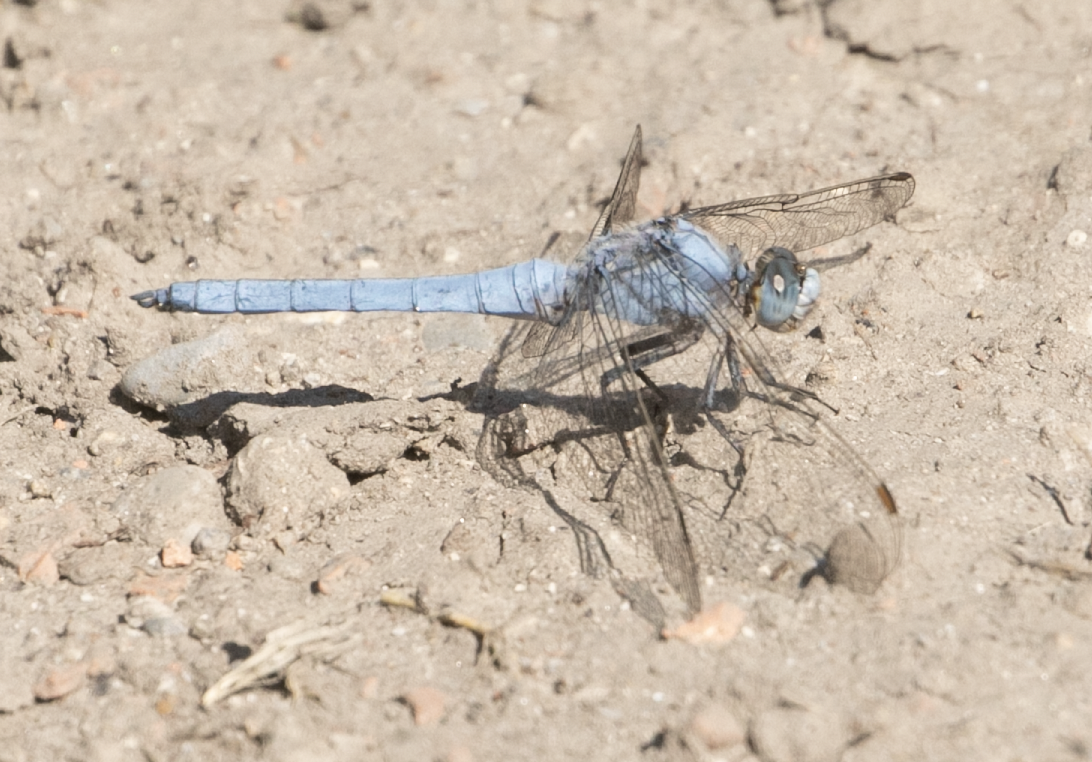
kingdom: Animalia
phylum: Arthropoda
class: Insecta
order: Odonata
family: Libellulidae
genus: Orthetrum
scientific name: Orthetrum brunneum
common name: Southern skimmer
